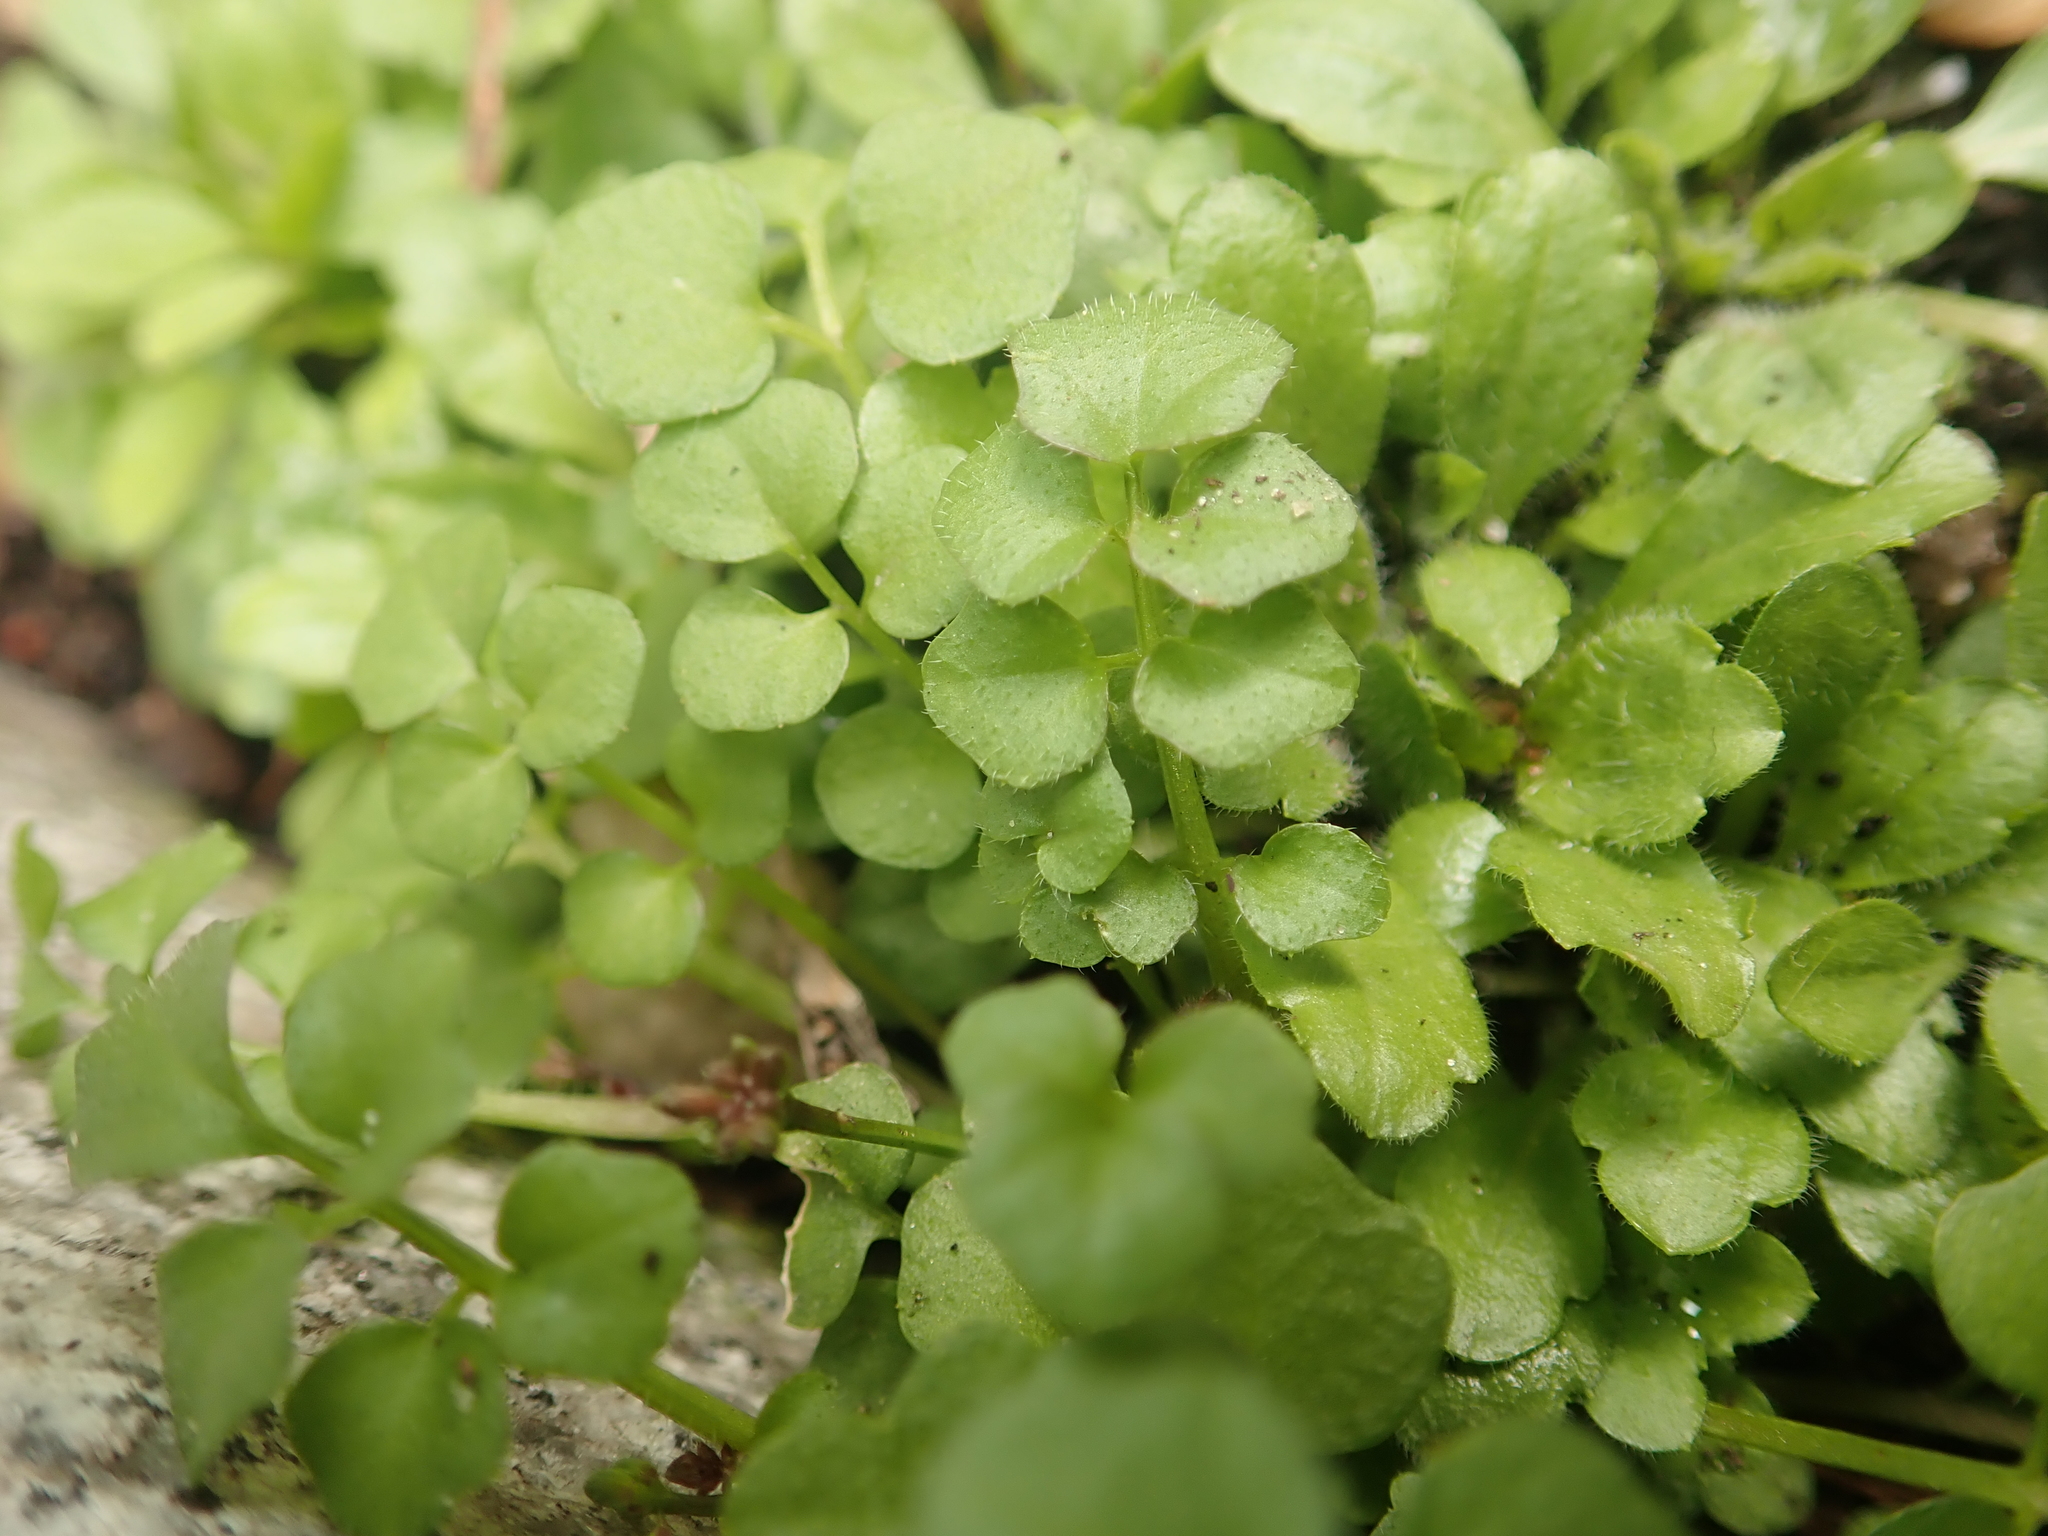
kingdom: Plantae
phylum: Tracheophyta
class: Magnoliopsida
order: Brassicales
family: Brassicaceae
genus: Cardamine
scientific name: Cardamine hirsuta
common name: Hairy bittercress
